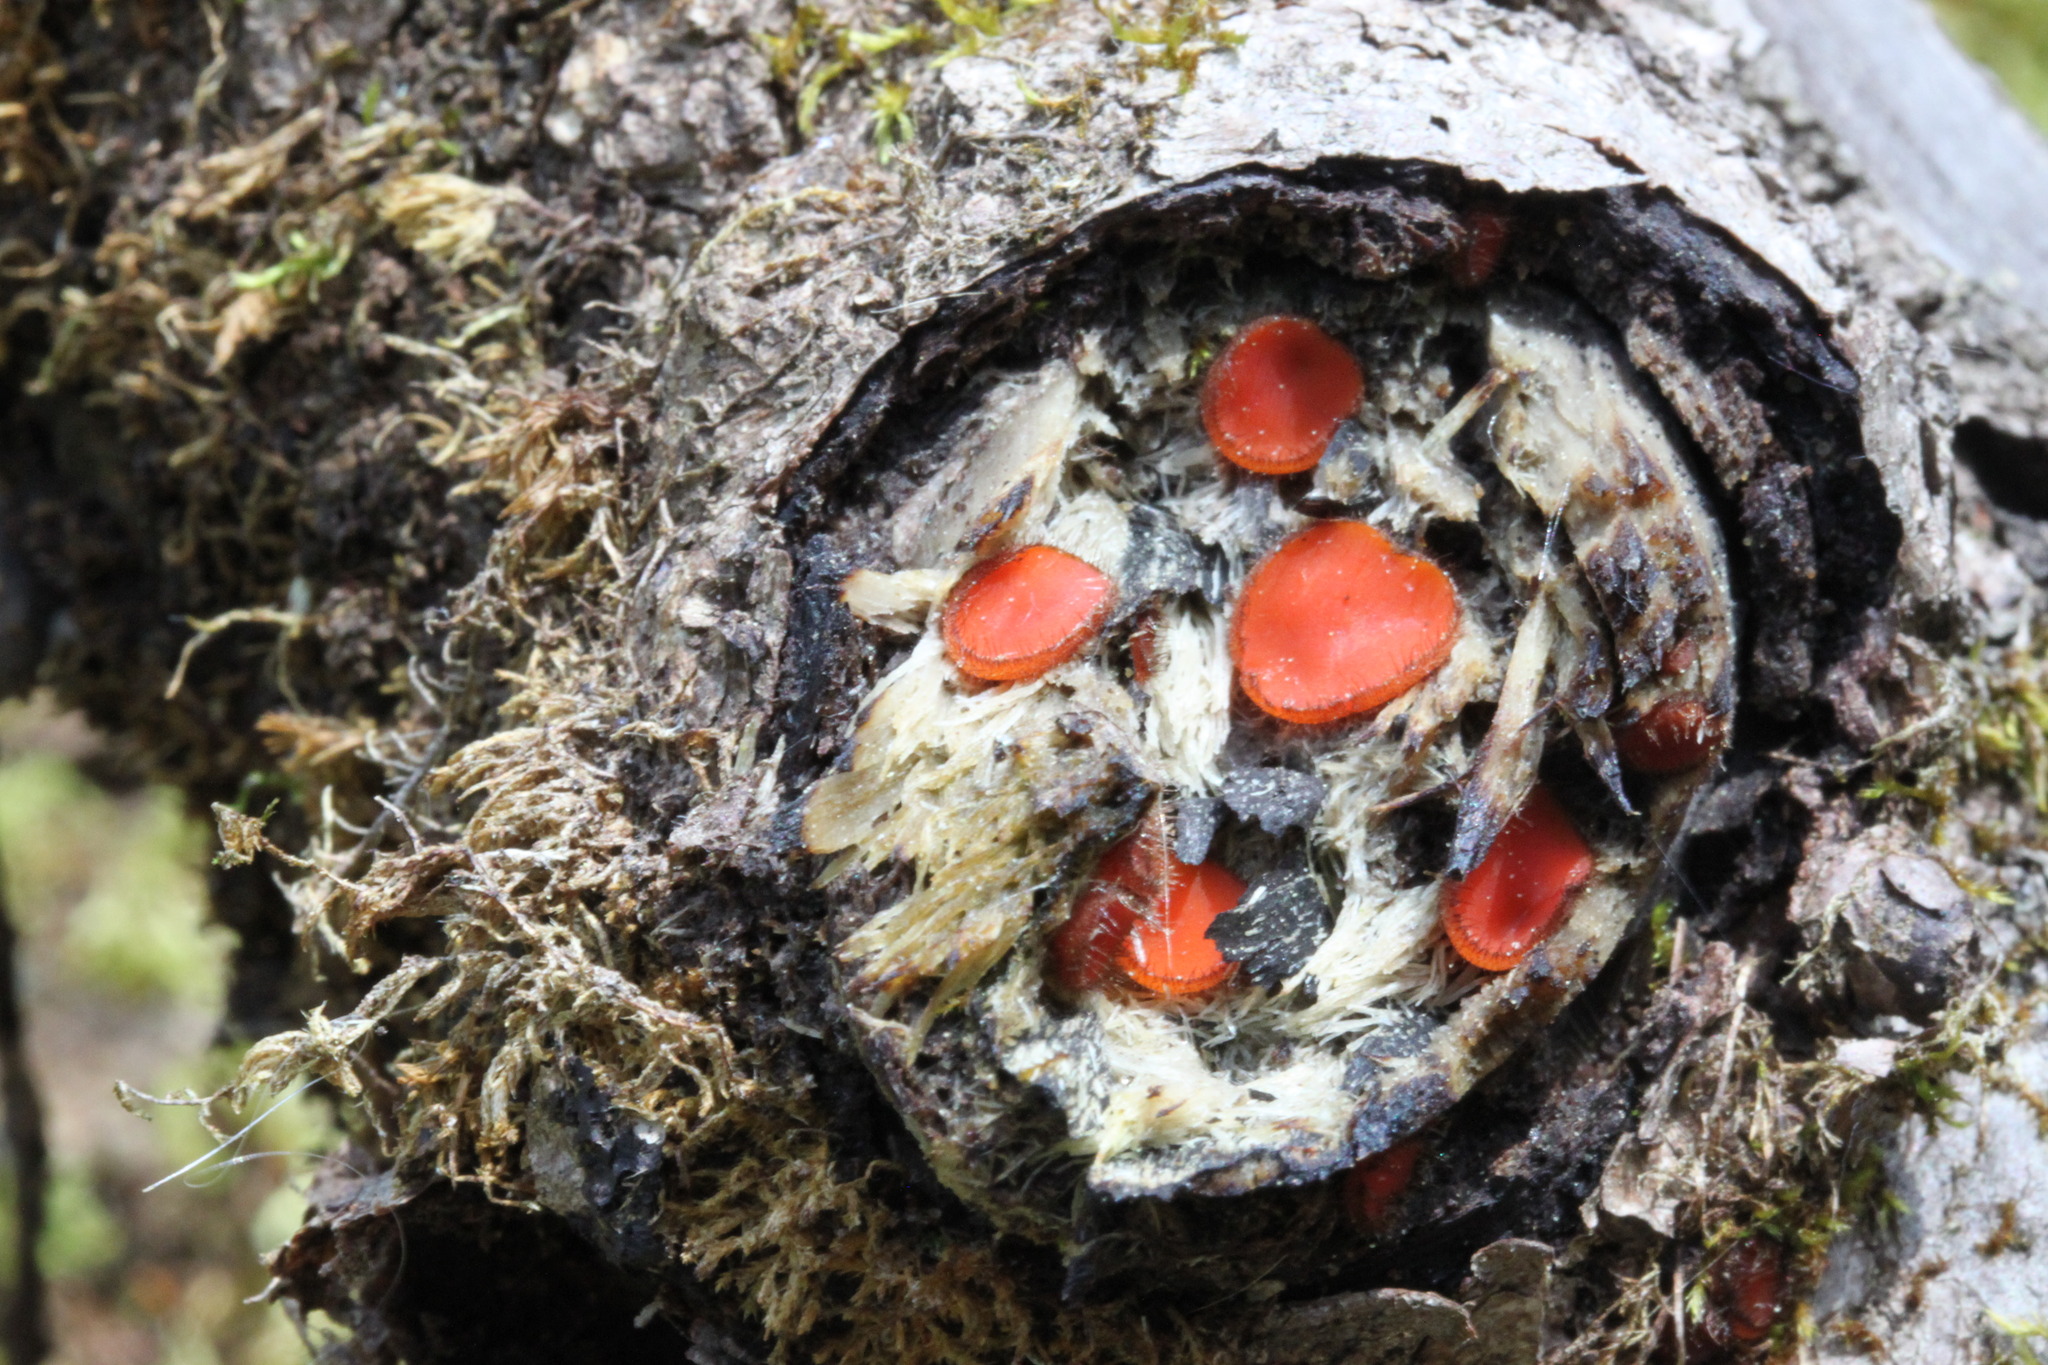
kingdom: Fungi
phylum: Ascomycota
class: Pezizomycetes
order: Pezizales
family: Pyronemataceae
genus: Scutellinia
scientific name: Scutellinia scutellata
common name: Common eyelash
